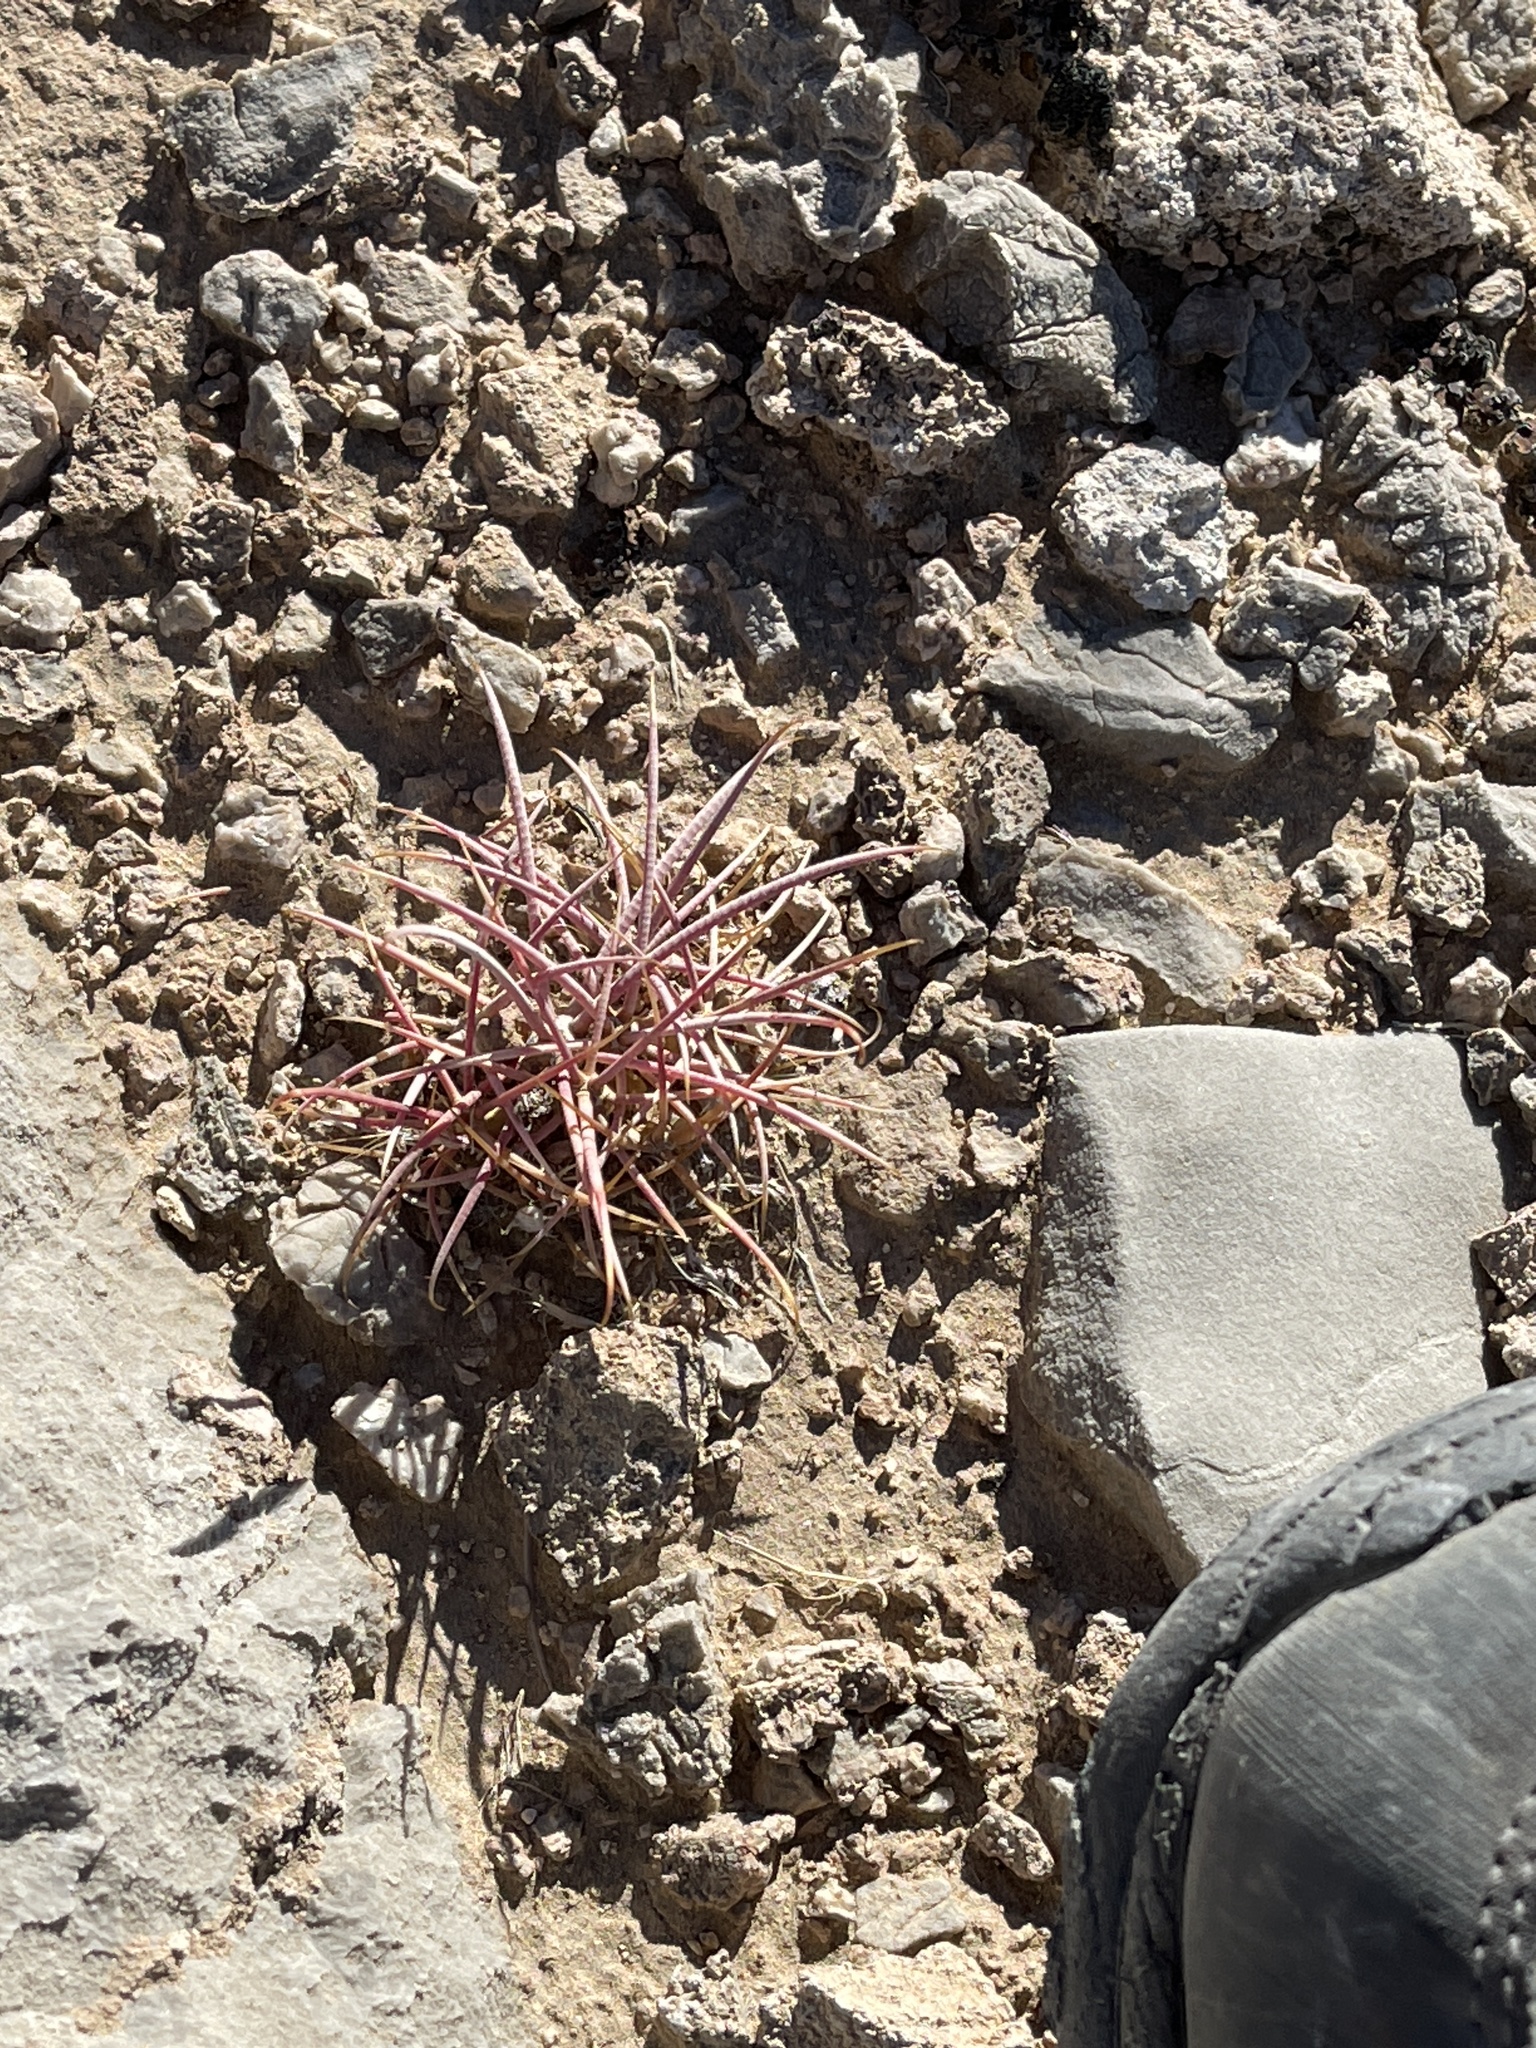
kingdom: Plantae
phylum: Tracheophyta
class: Magnoliopsida
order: Caryophyllales
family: Cactaceae
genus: Echinocactus
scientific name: Echinocactus polycephalus
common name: Cottontop cactus
